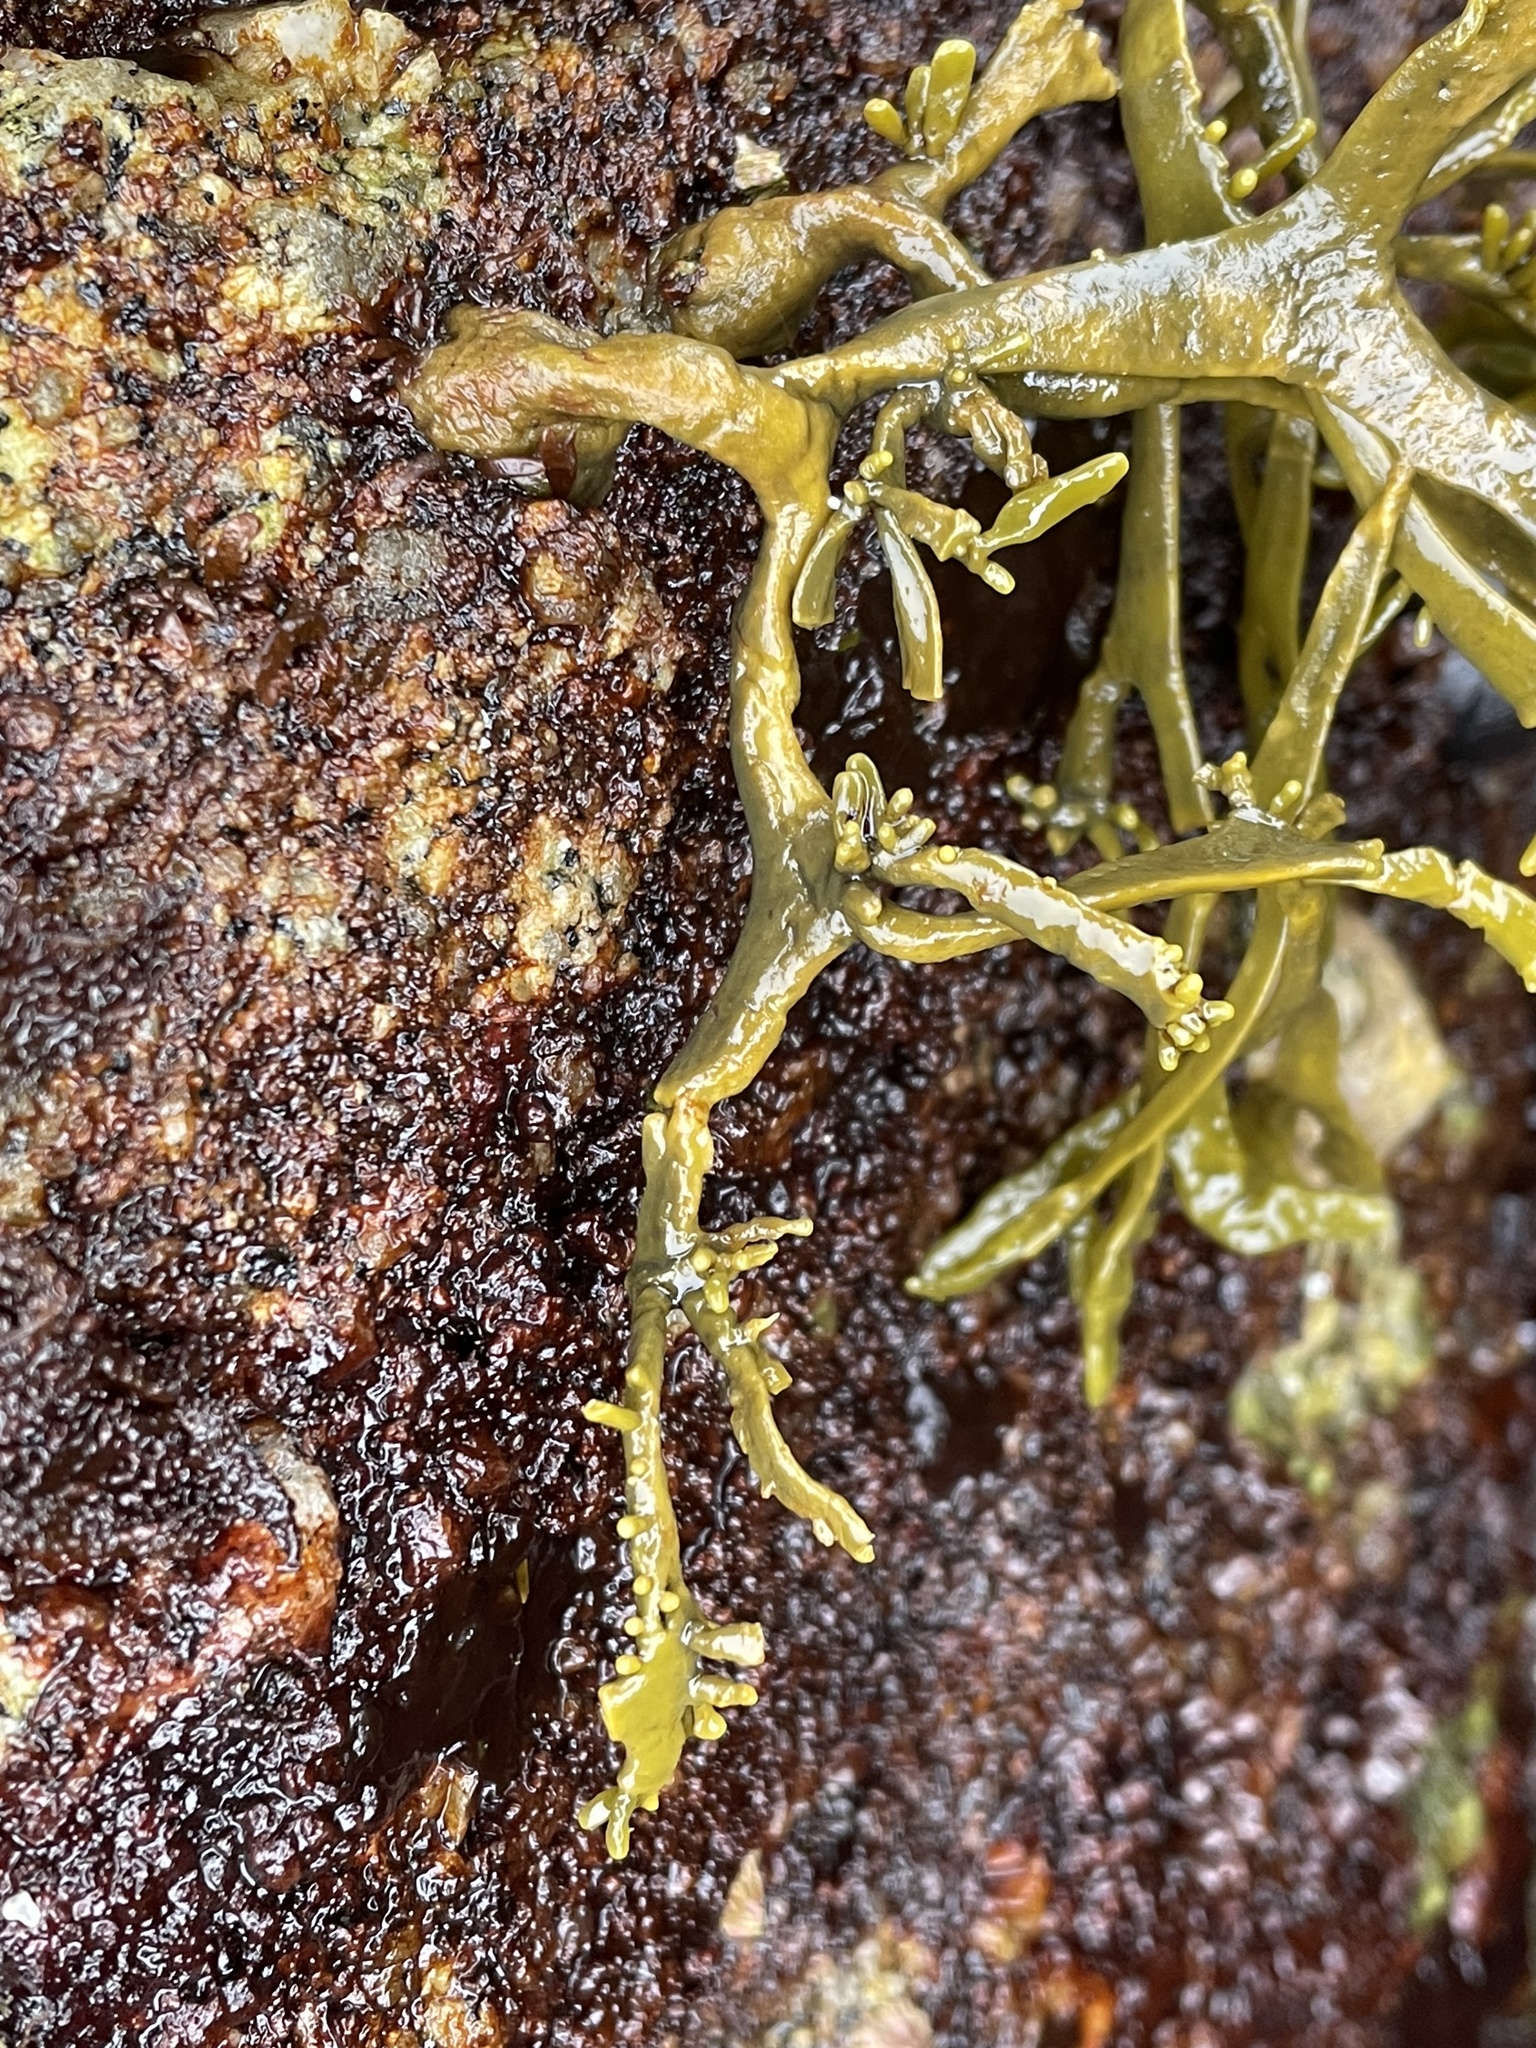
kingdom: Chromista
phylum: Ochrophyta
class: Phaeophyceae
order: Fucales
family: Fucaceae
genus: Silvetia
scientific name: Silvetia
